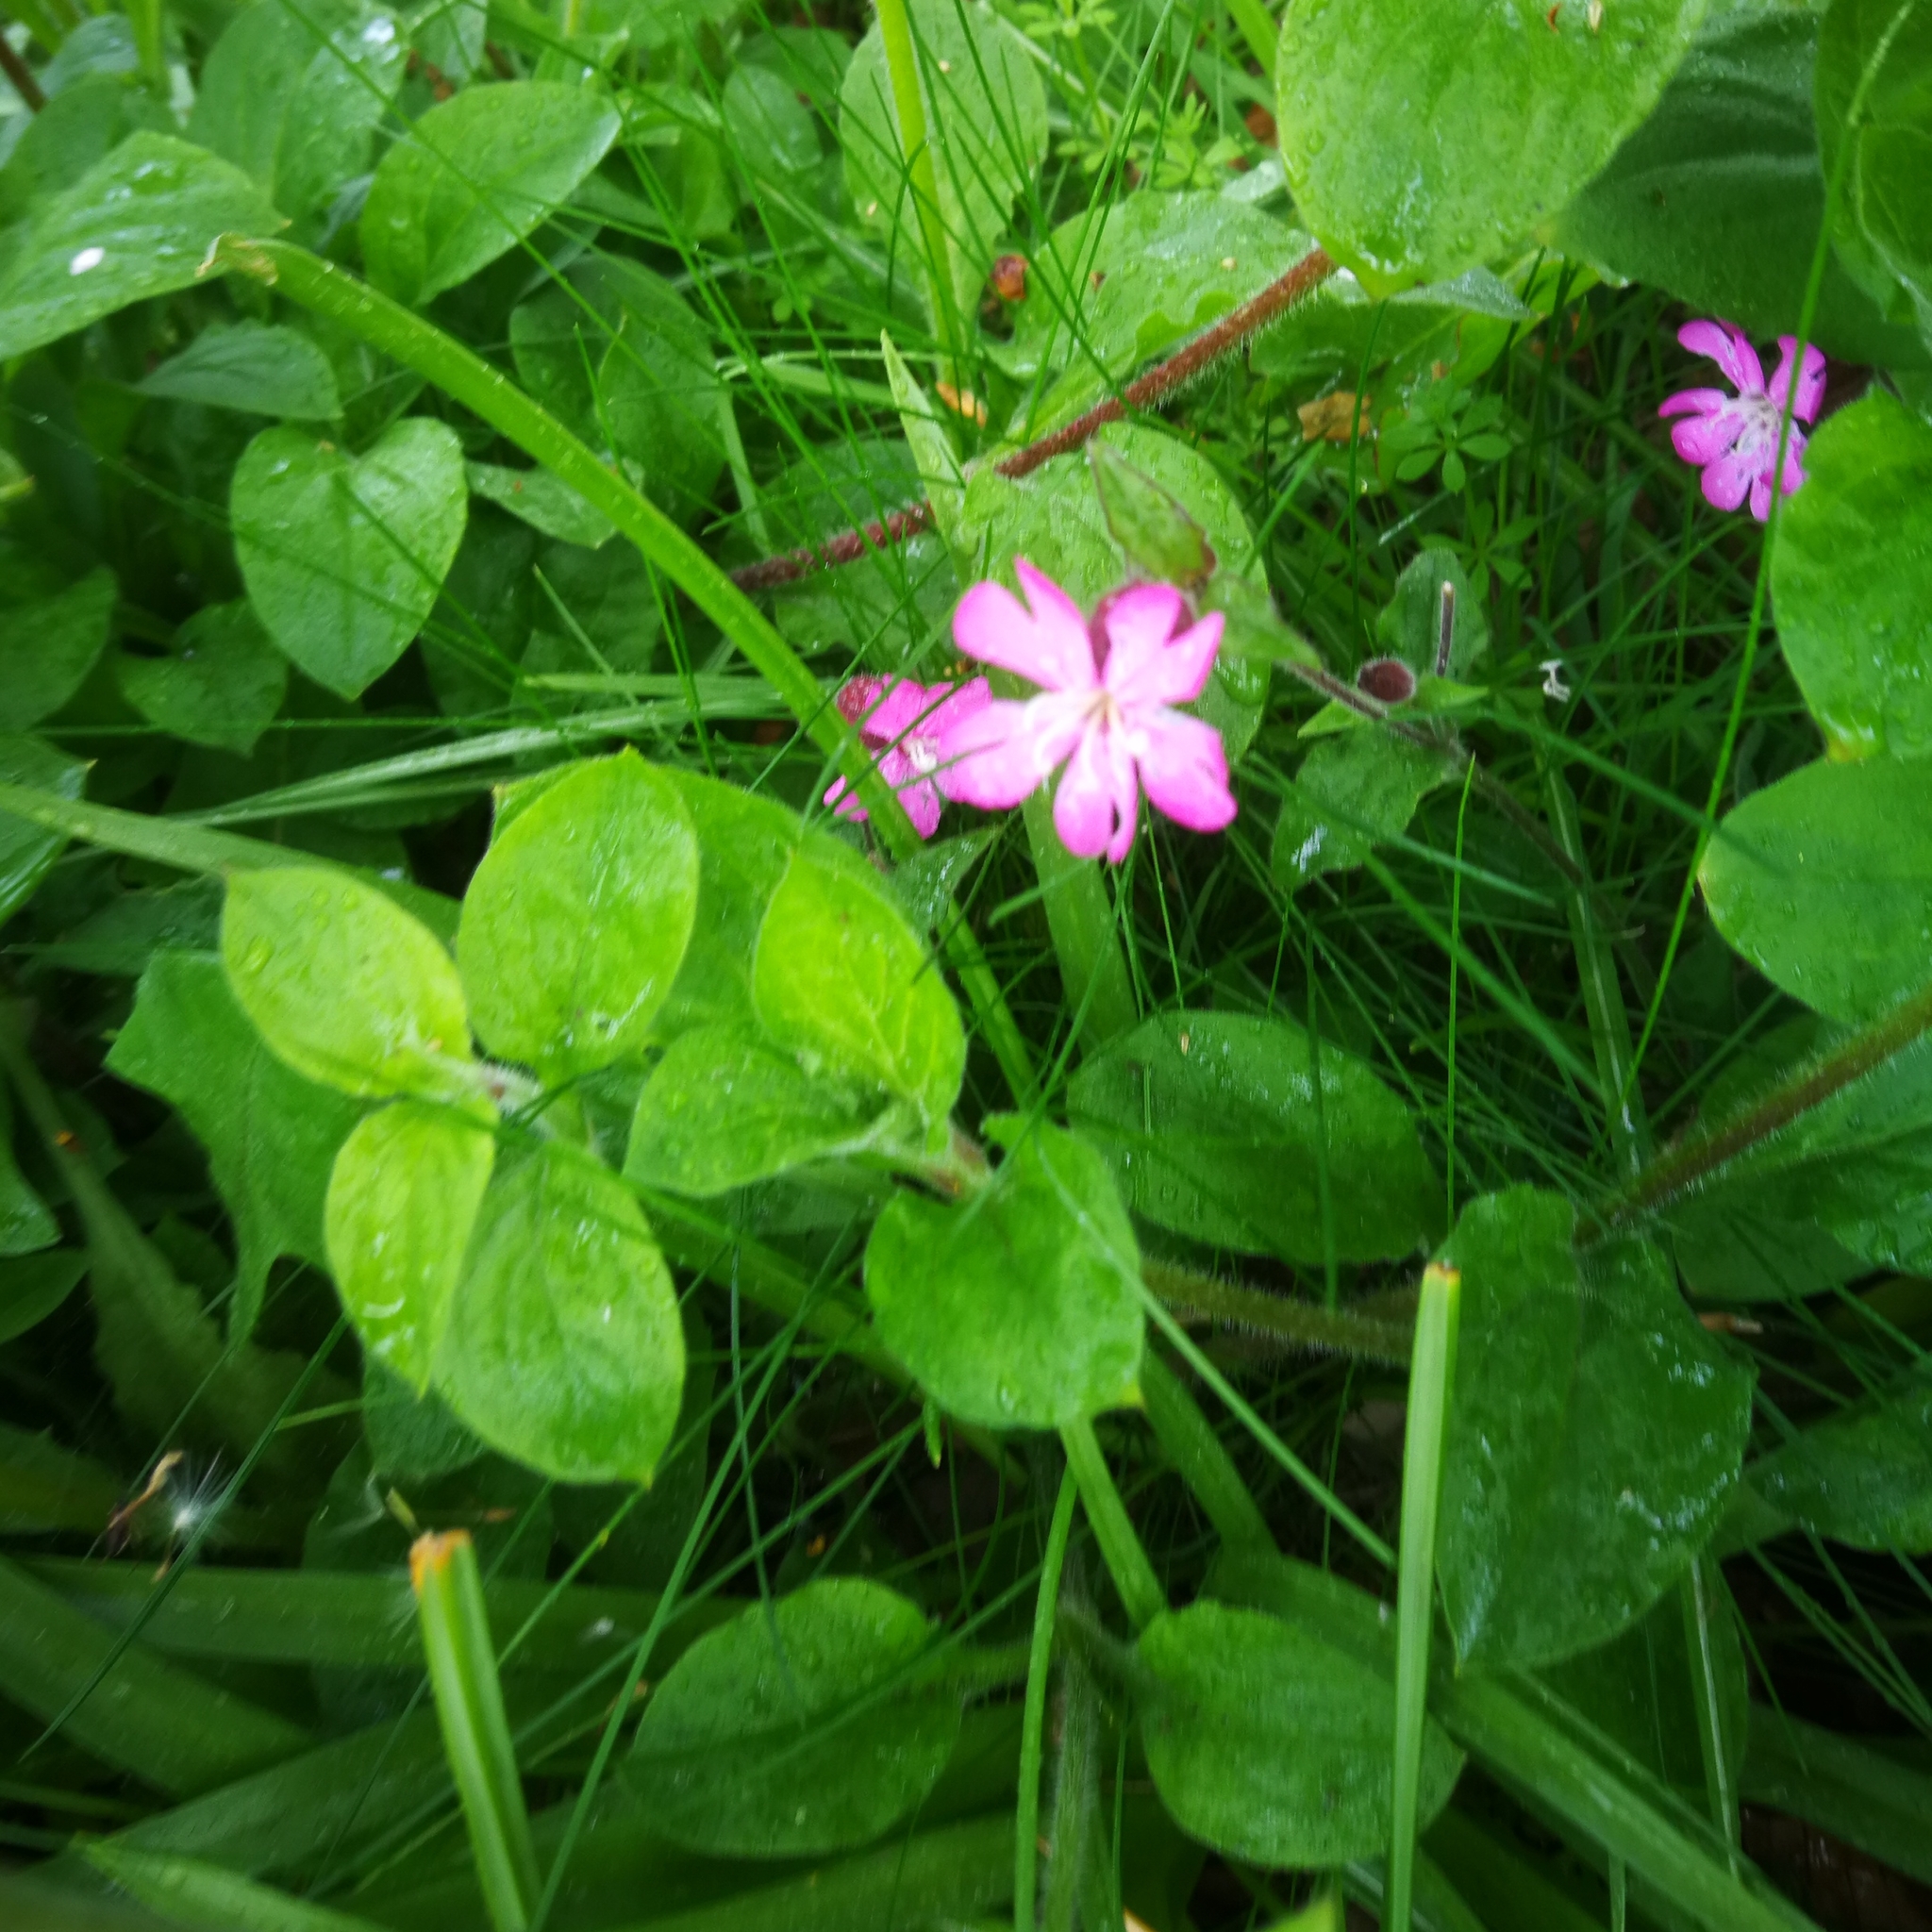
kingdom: Plantae
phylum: Tracheophyta
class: Magnoliopsida
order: Caryophyllales
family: Caryophyllaceae
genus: Silene
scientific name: Silene dioica
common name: Red campion
